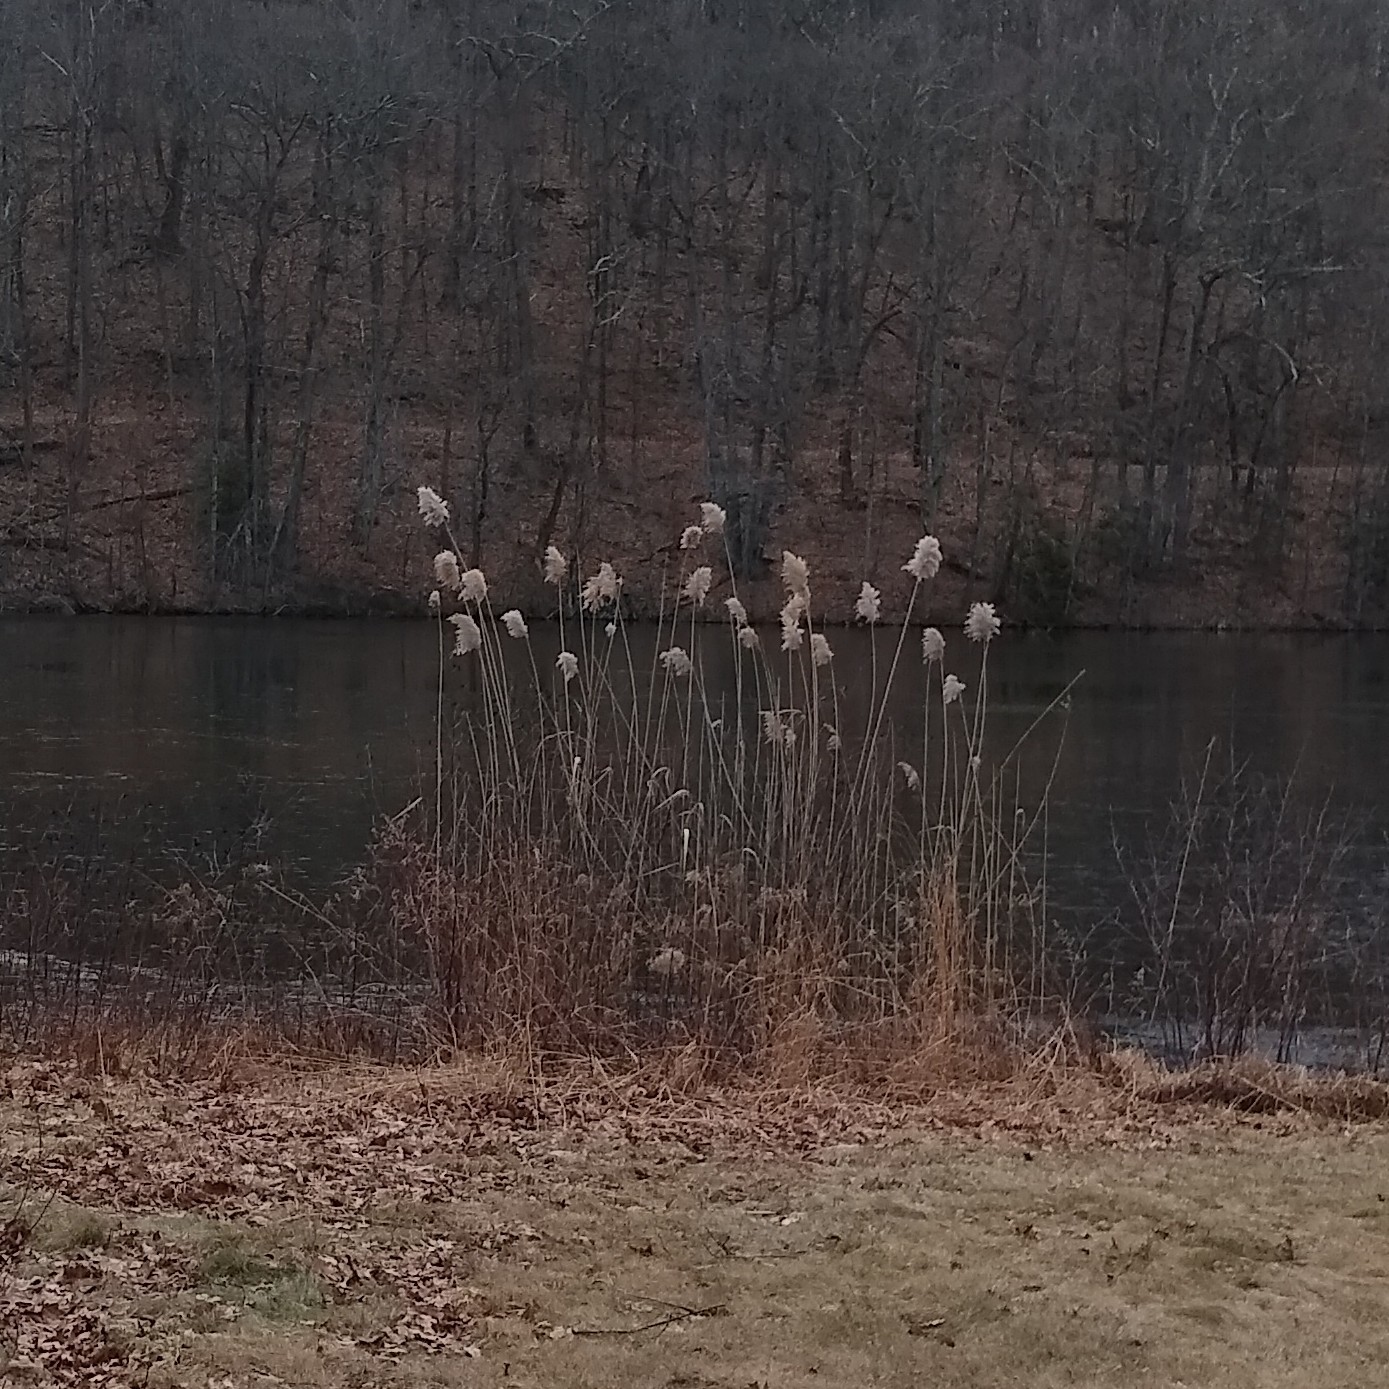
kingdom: Plantae
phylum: Tracheophyta
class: Liliopsida
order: Poales
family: Poaceae
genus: Phragmites
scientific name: Phragmites australis
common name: Common reed
